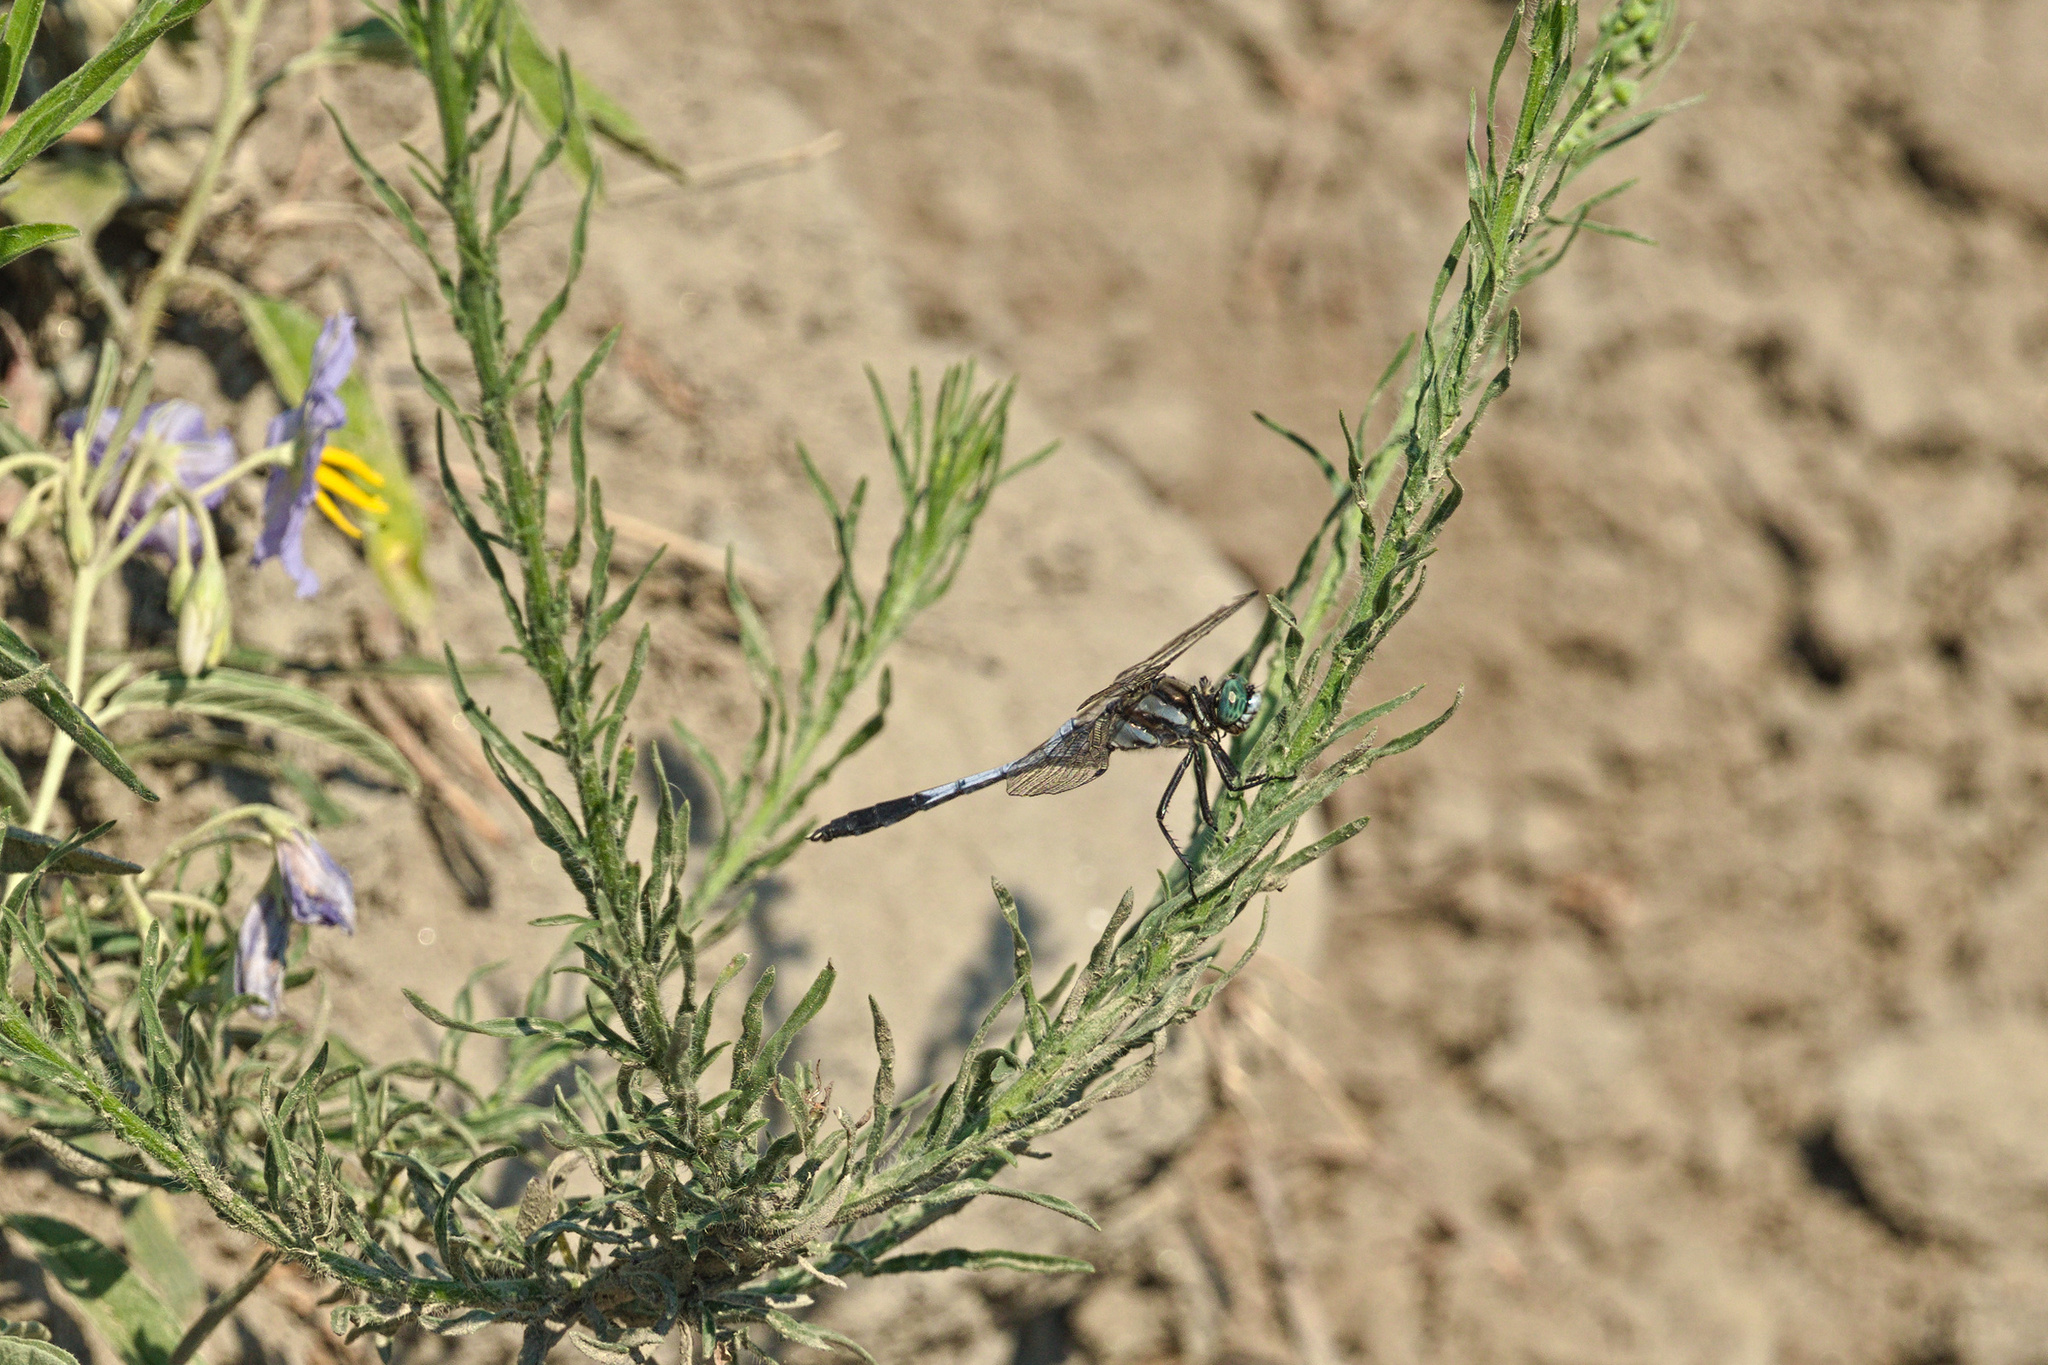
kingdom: Animalia
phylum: Arthropoda
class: Insecta
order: Odonata
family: Libellulidae
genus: Orthetrum
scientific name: Orthetrum albistylum
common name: White-tailed skimmer
